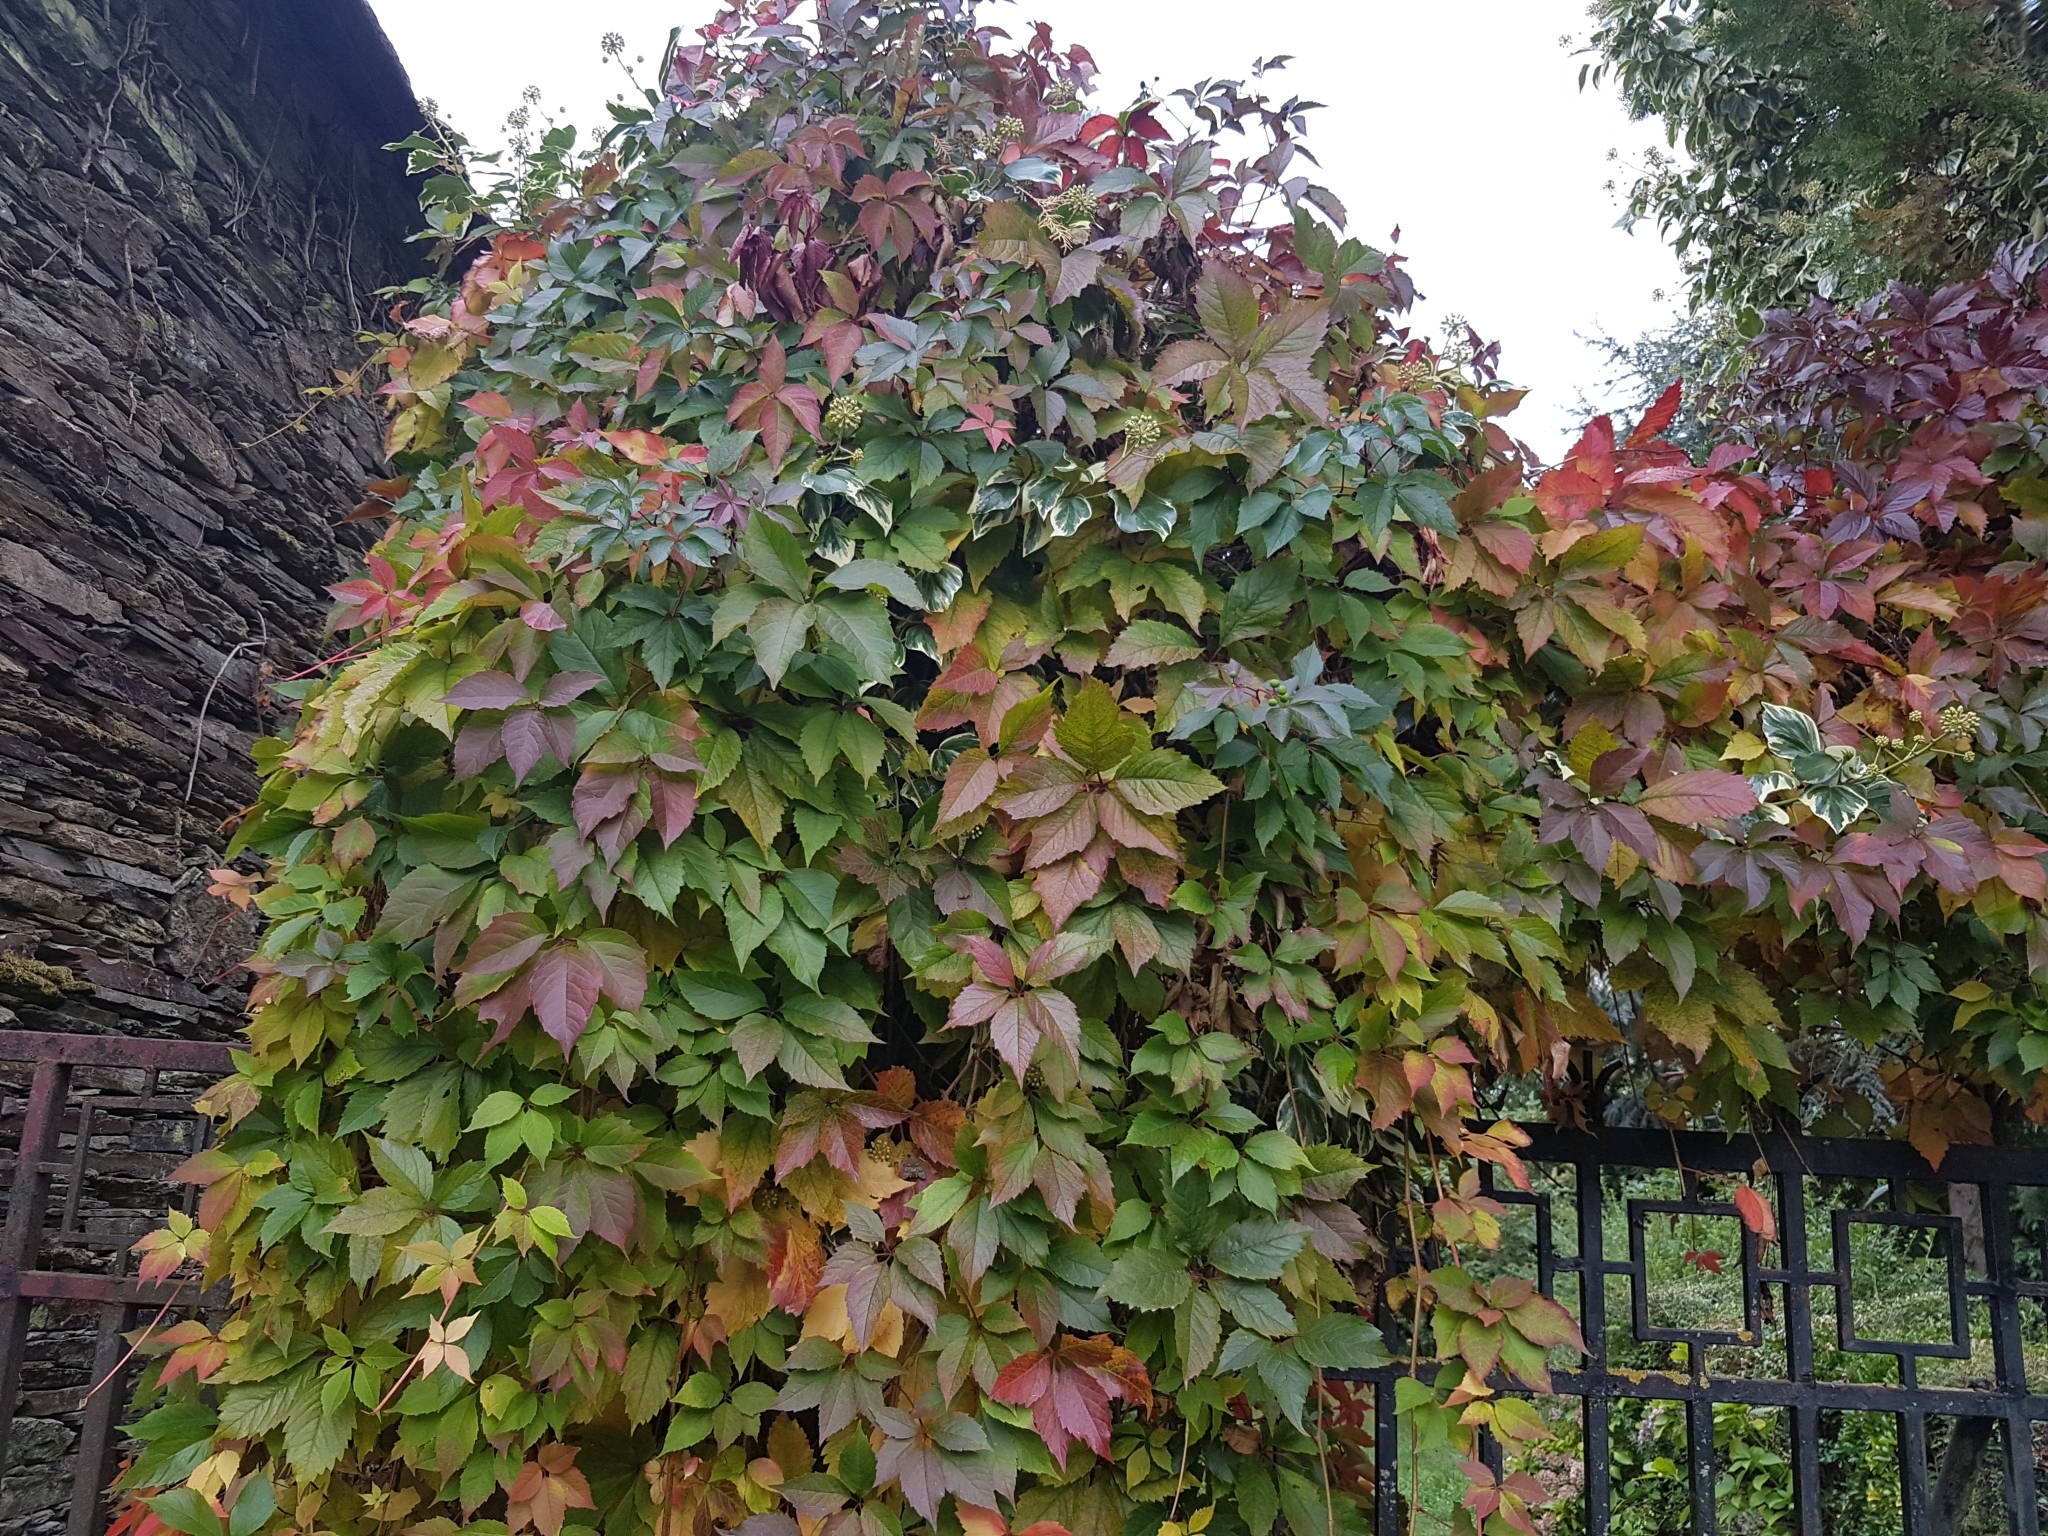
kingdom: Plantae
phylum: Tracheophyta
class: Magnoliopsida
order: Vitales
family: Vitaceae
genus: Parthenocissus
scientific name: Parthenocissus quinquefolia
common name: Virginia-creeper
